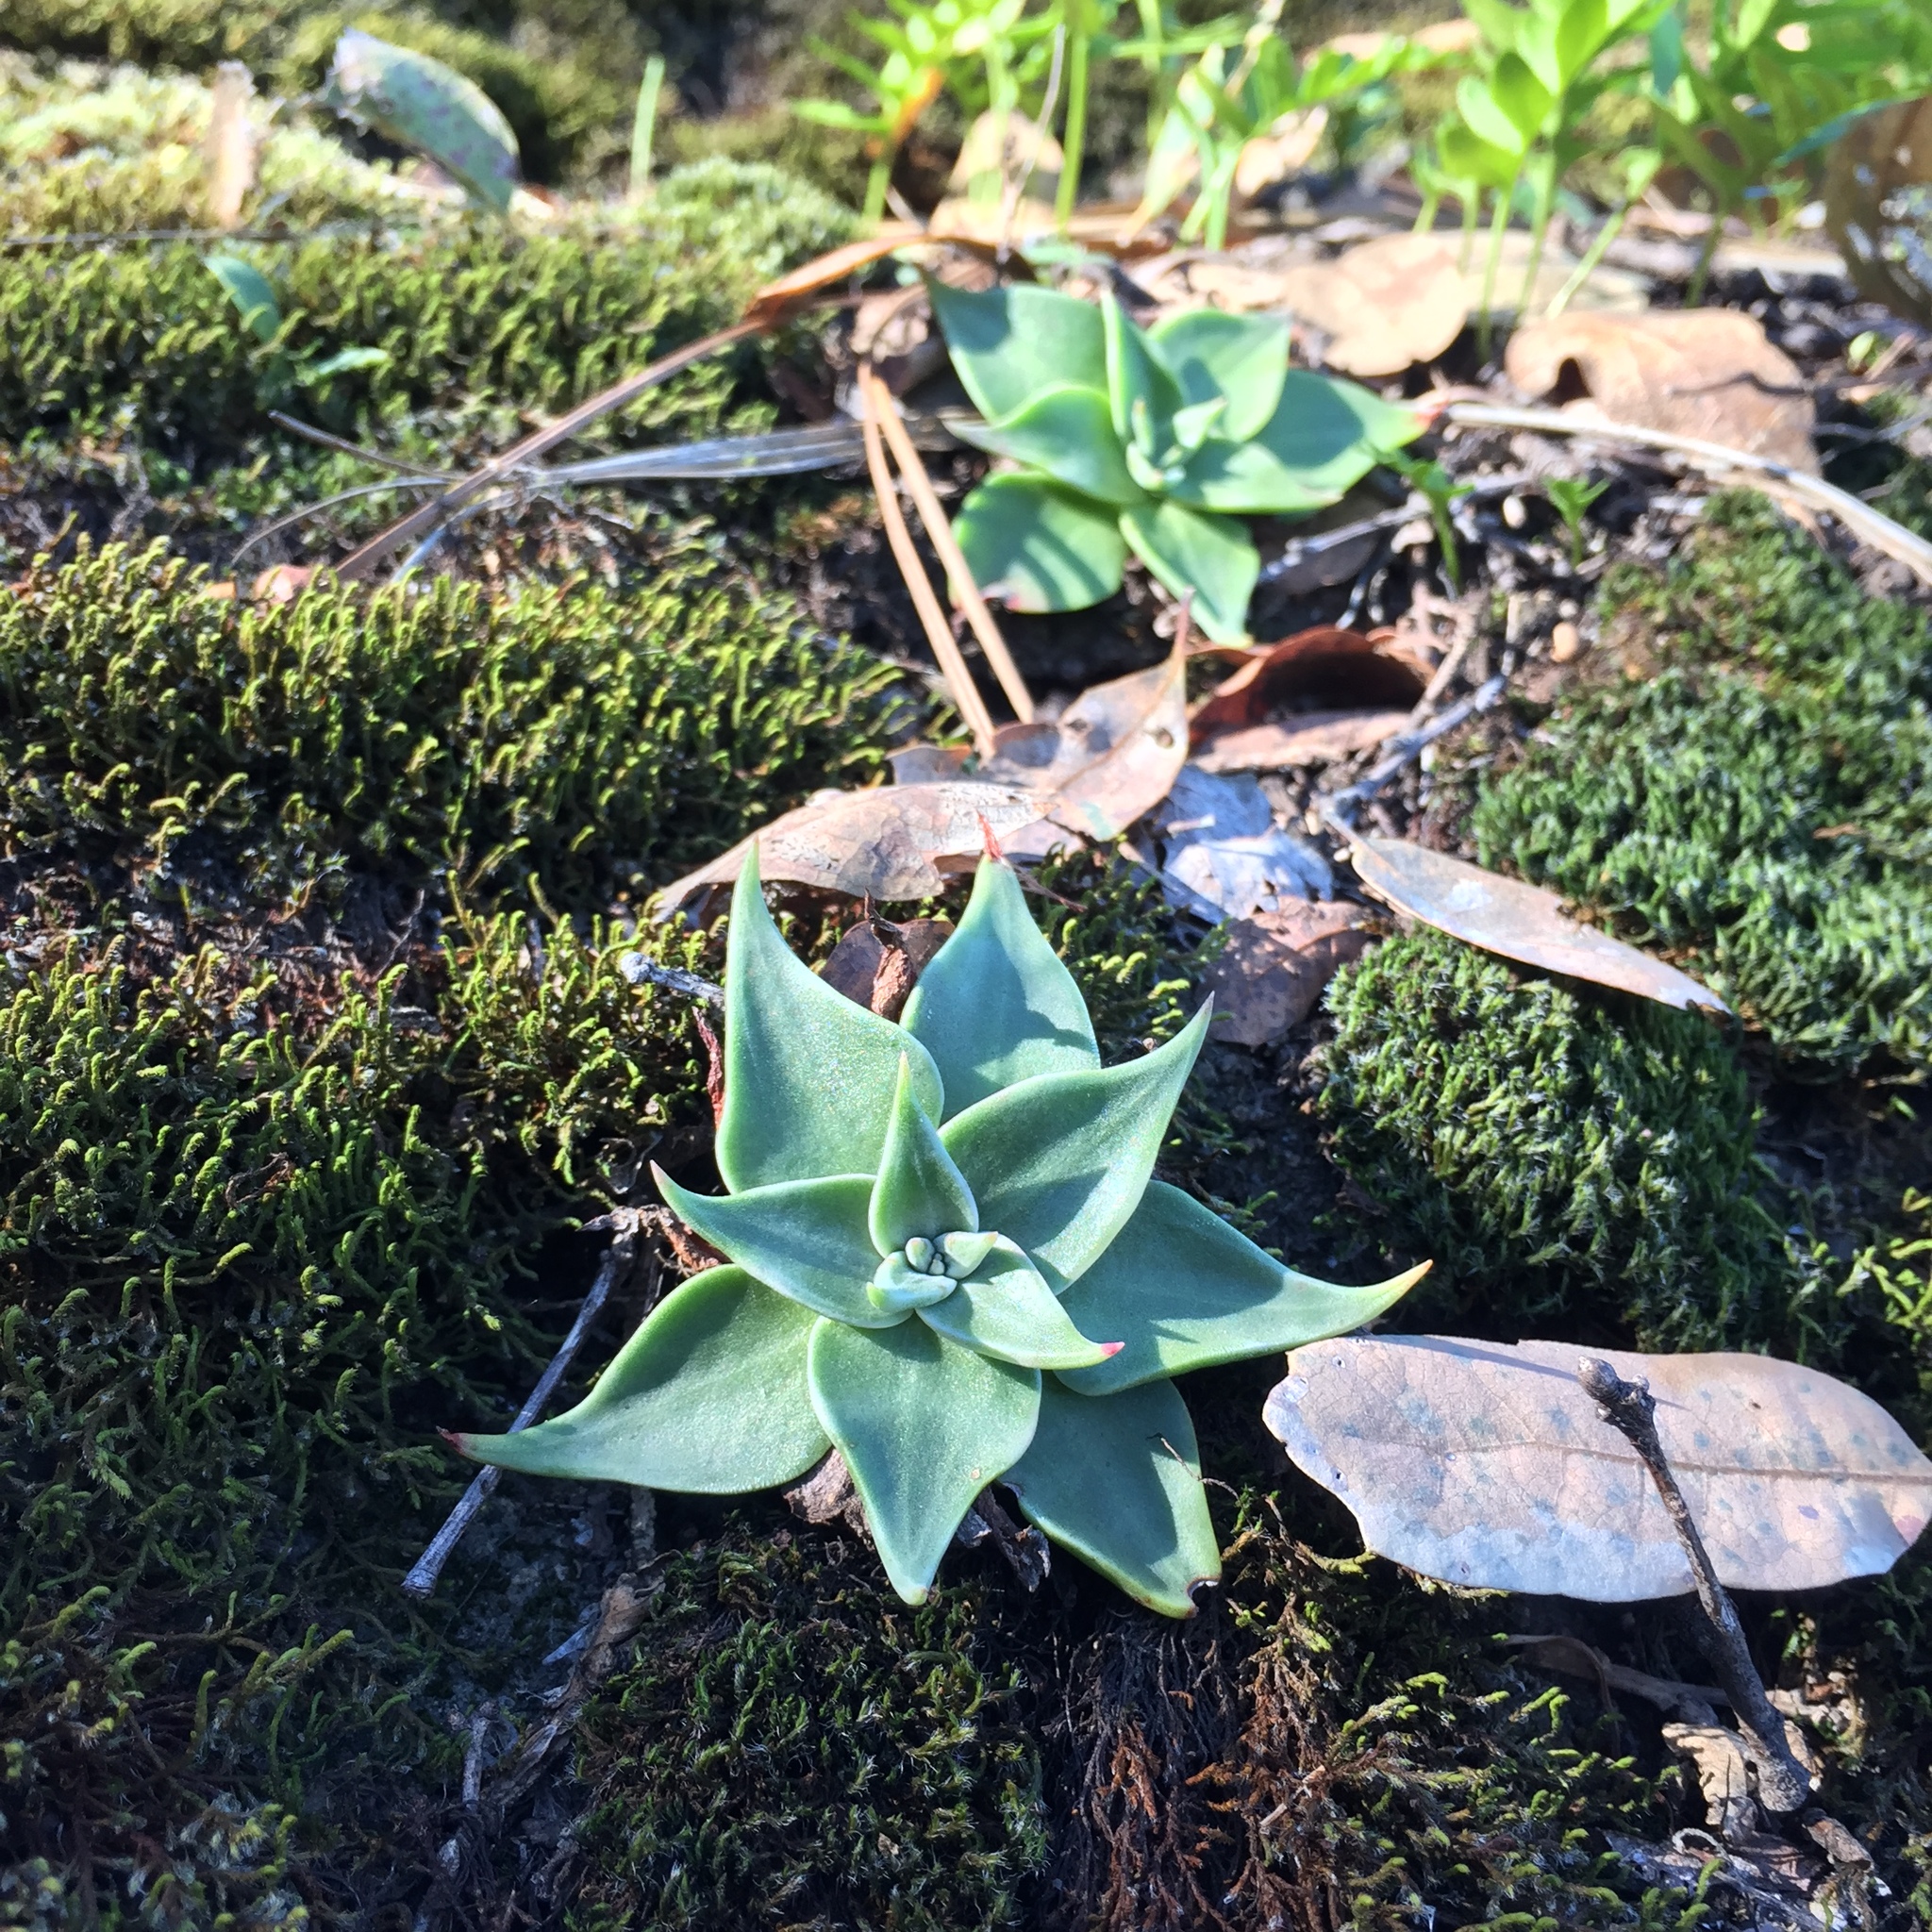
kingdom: Plantae
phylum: Tracheophyta
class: Magnoliopsida
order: Saxifragales
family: Crassulaceae
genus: Dudleya
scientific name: Dudleya cymosa
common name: Canyon dudleya
